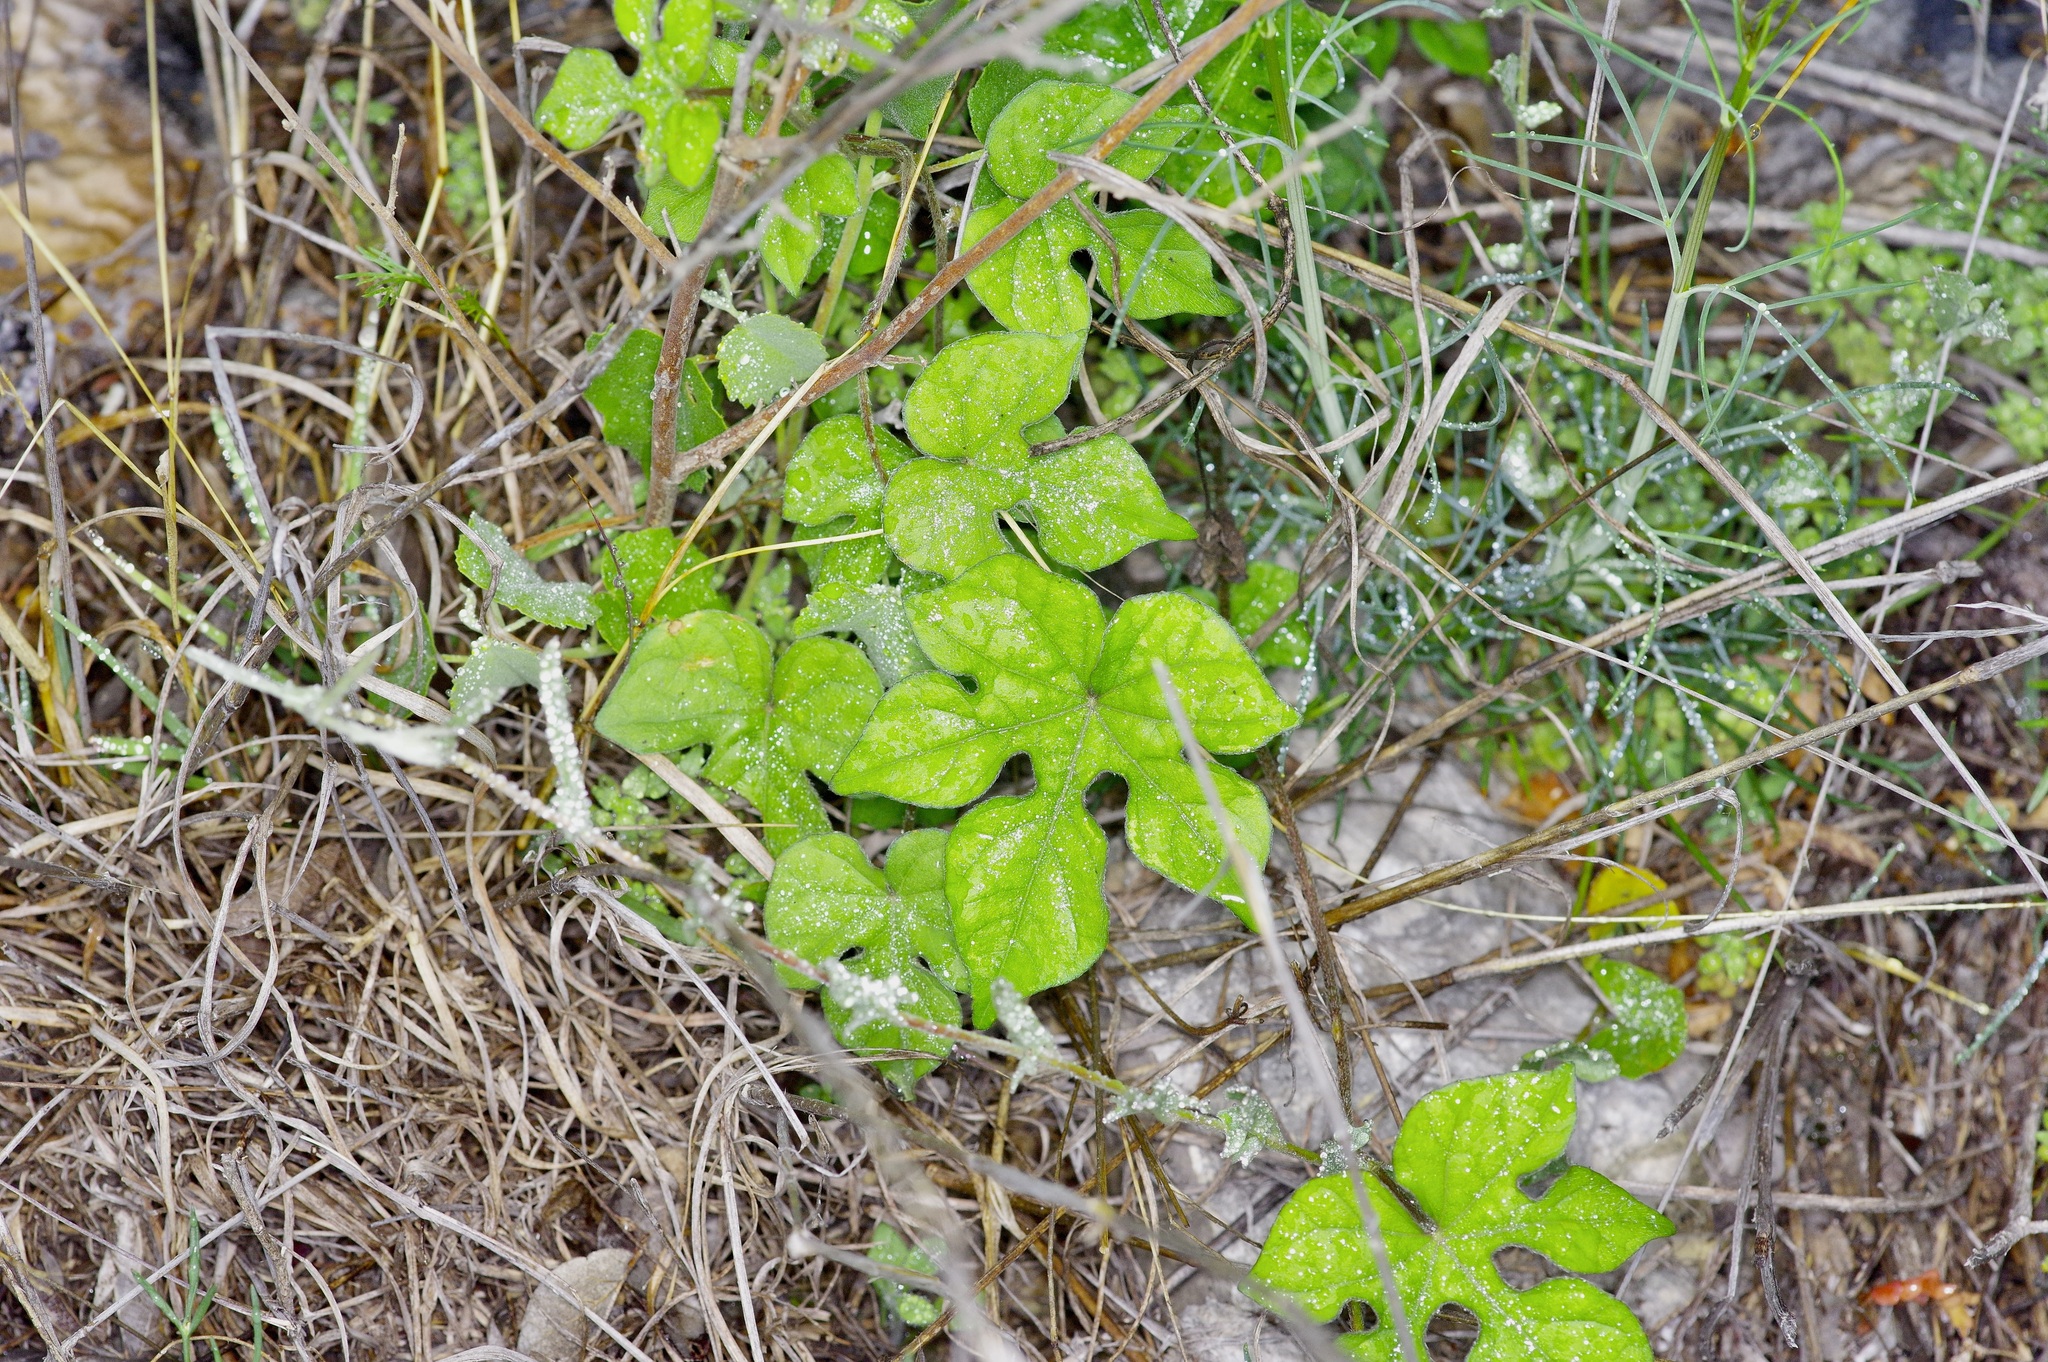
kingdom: Plantae
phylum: Tracheophyta
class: Magnoliopsida
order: Solanales
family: Convolvulaceae
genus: Ipomoea
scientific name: Ipomoea lindheimeri
